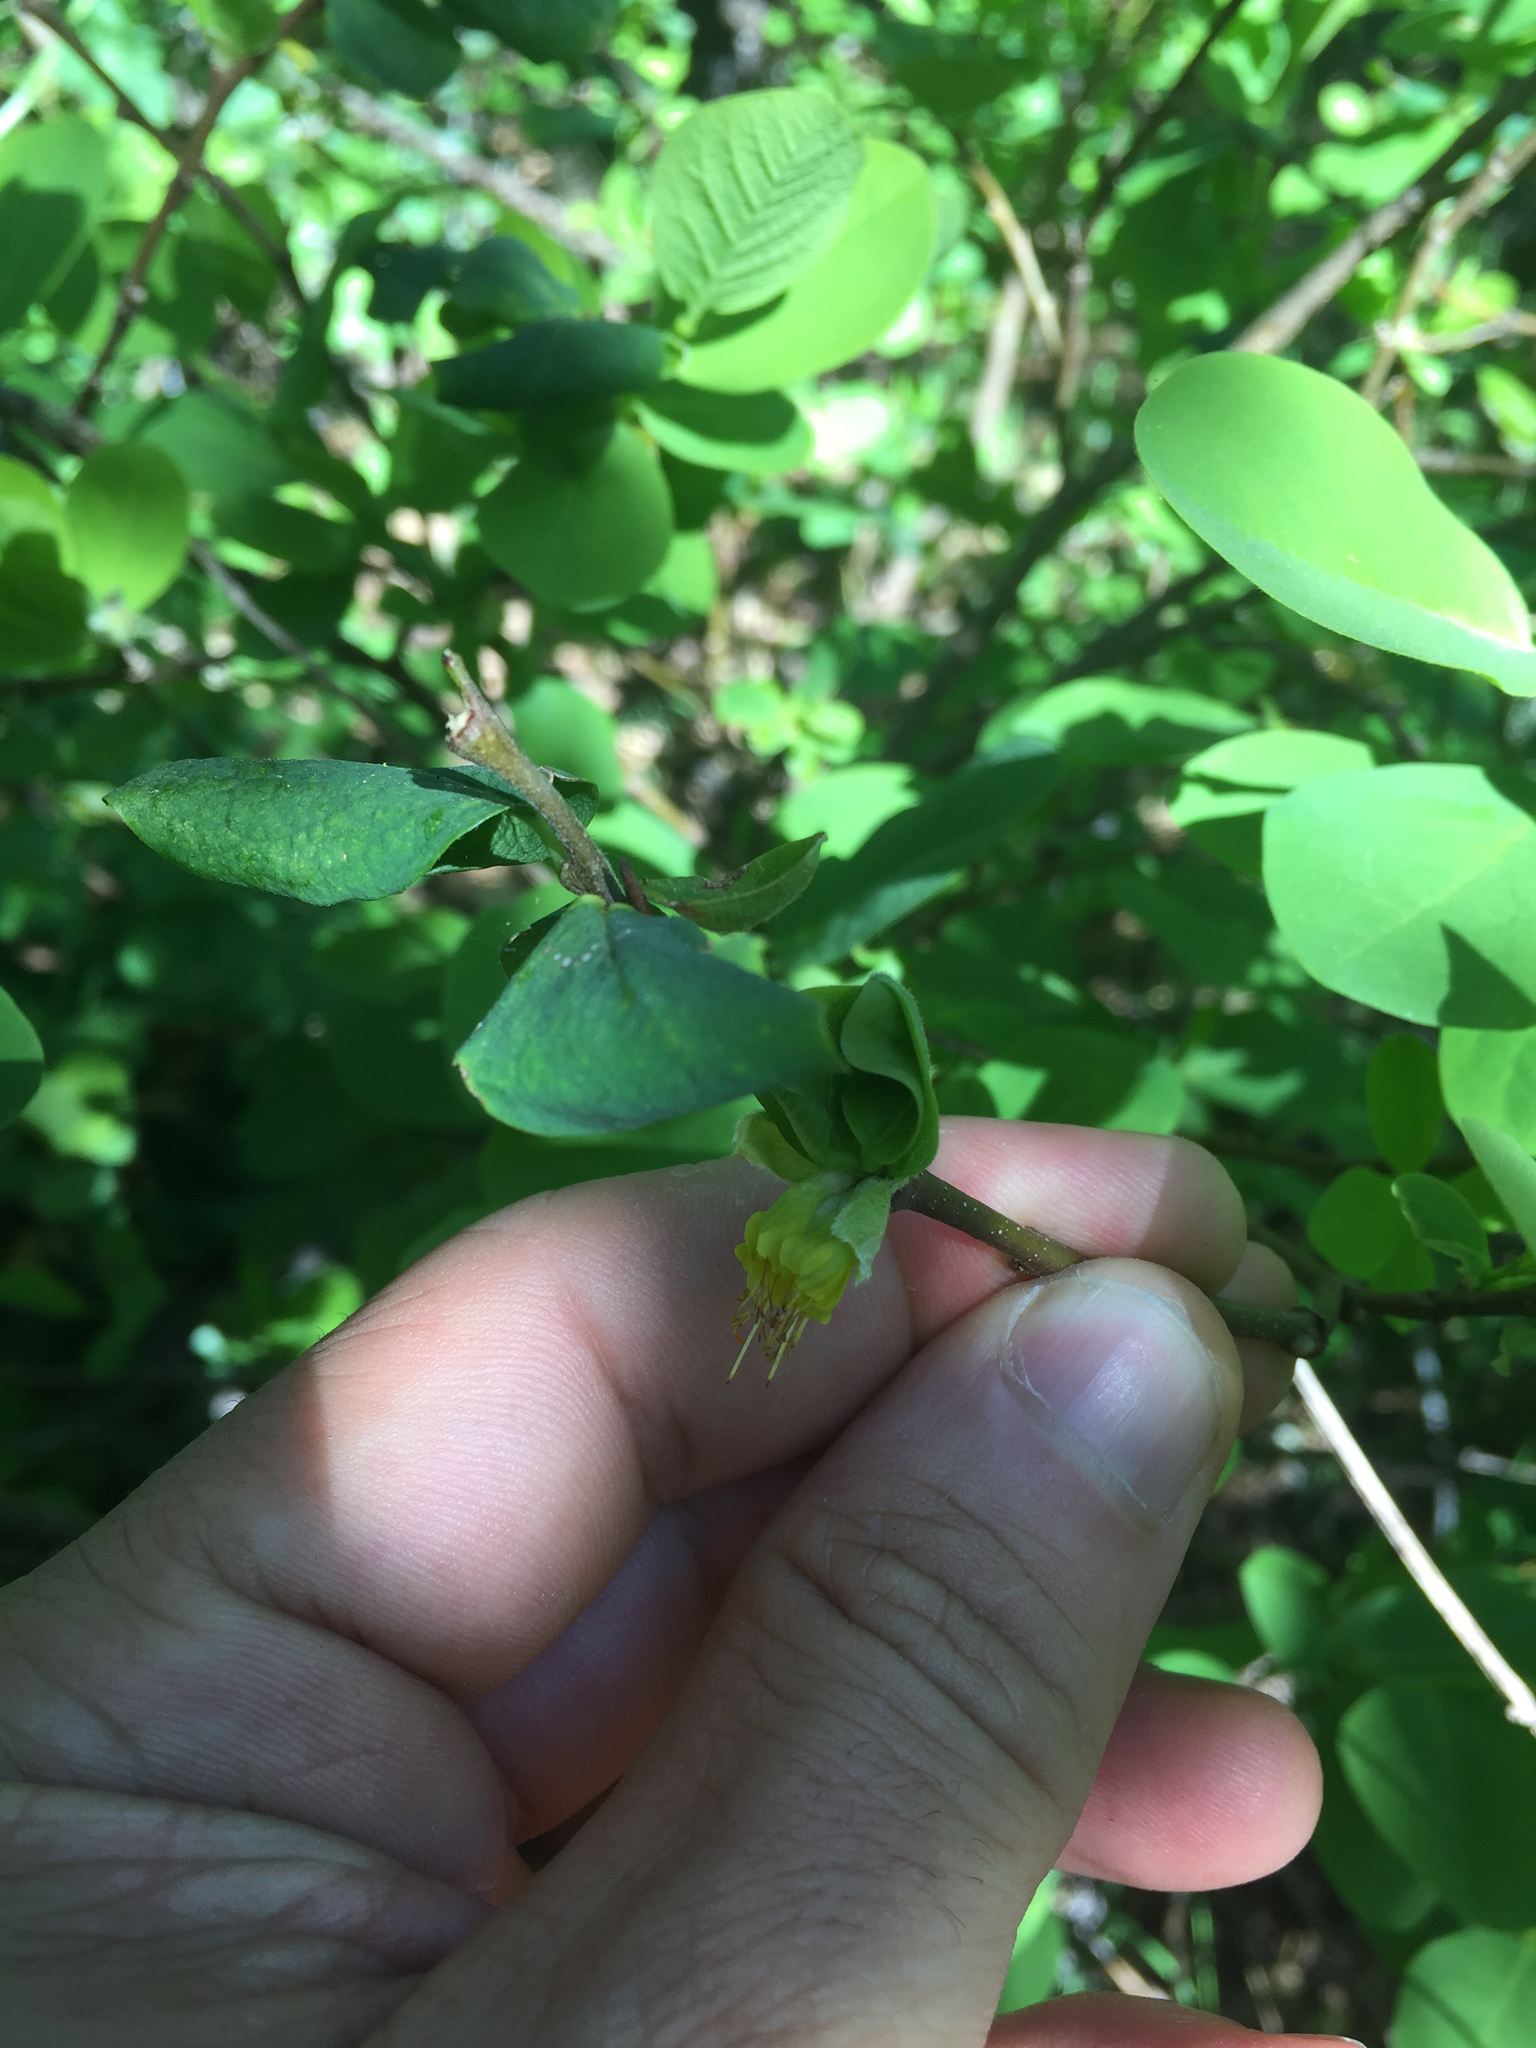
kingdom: Plantae
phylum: Tracheophyta
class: Magnoliopsida
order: Malvales
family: Thymelaeaceae
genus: Dirca
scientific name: Dirca occidentalis
